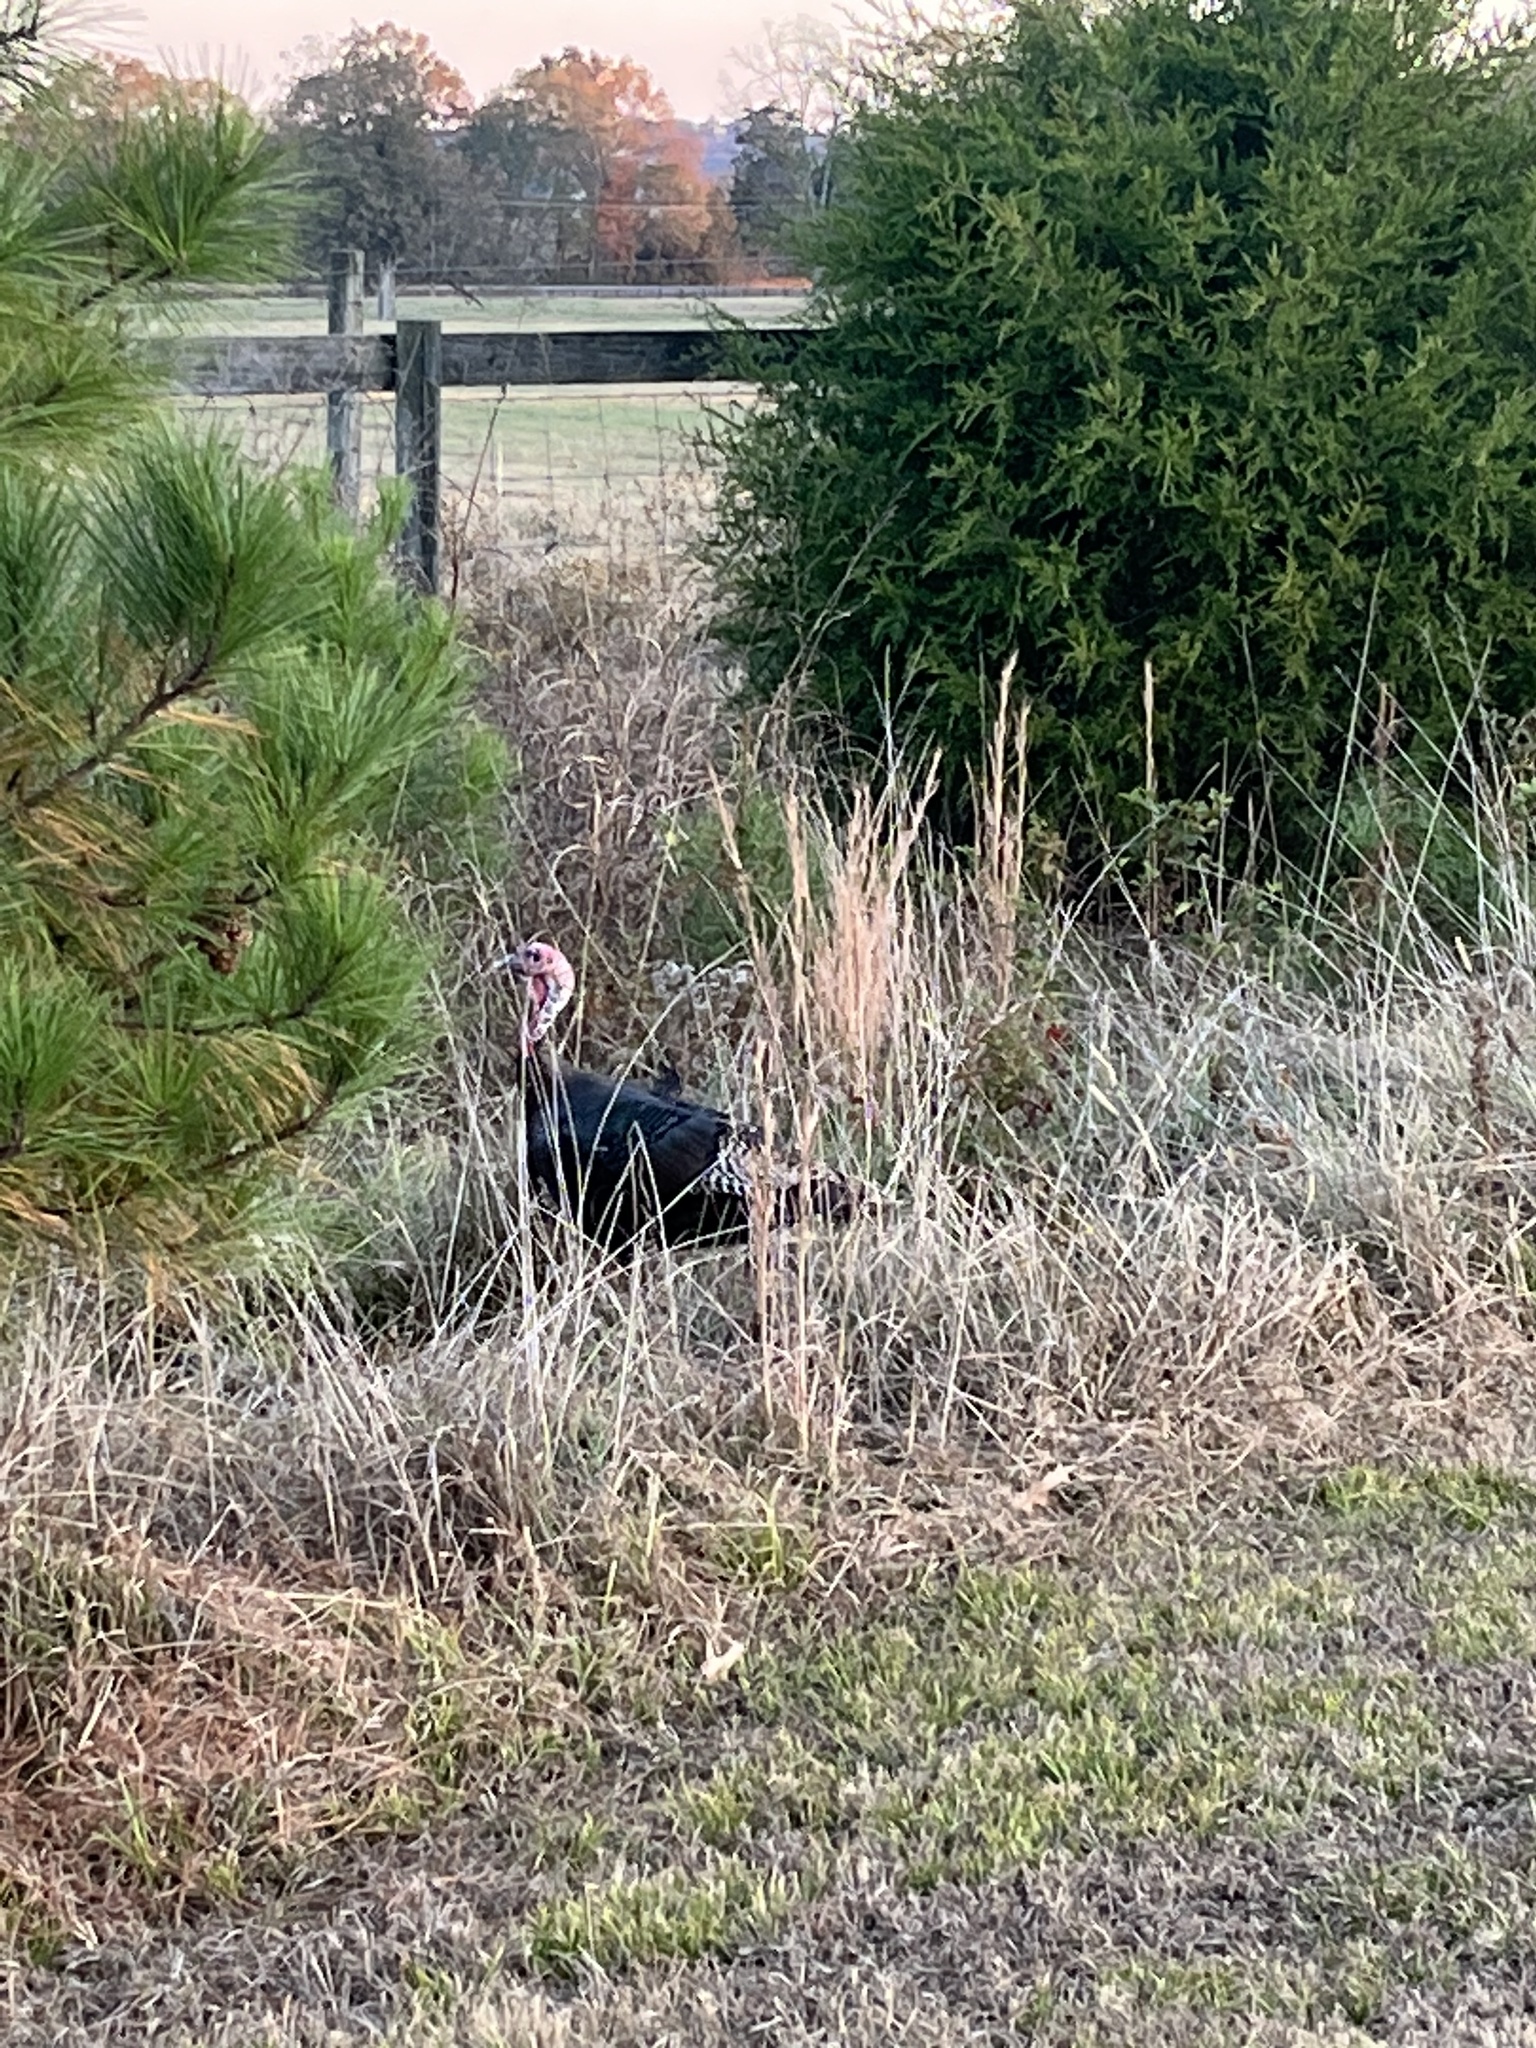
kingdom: Animalia
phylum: Chordata
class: Aves
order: Galliformes
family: Phasianidae
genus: Meleagris
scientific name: Meleagris gallopavo
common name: Wild turkey
